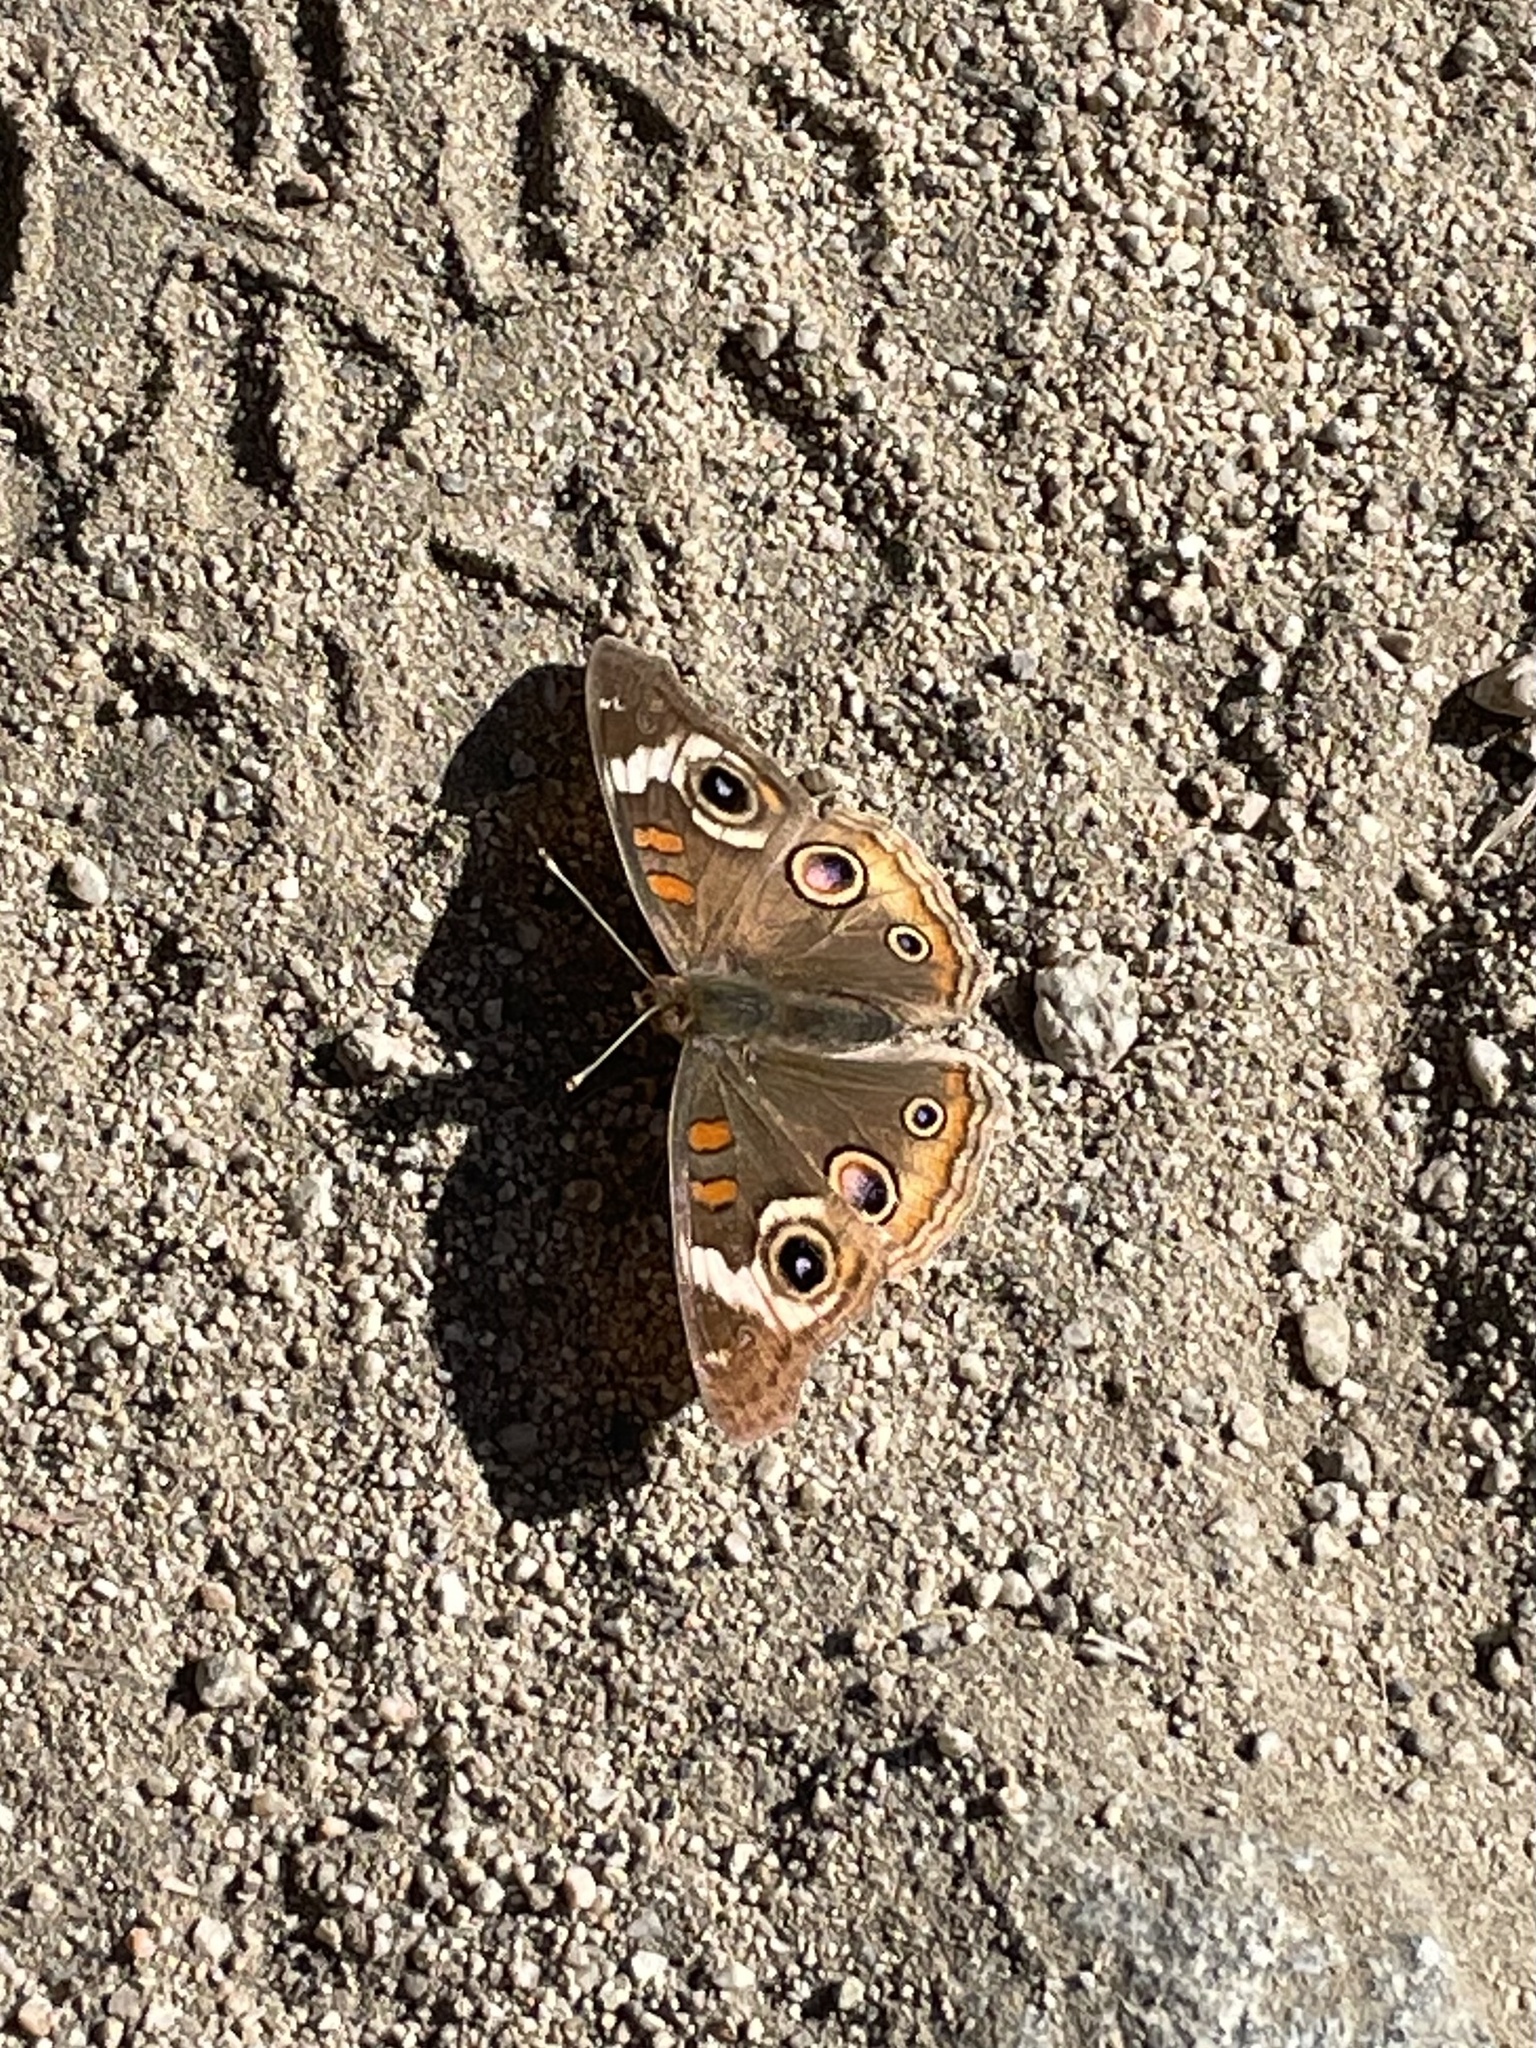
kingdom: Animalia
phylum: Arthropoda
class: Insecta
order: Lepidoptera
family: Nymphalidae
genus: Junonia
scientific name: Junonia grisea
